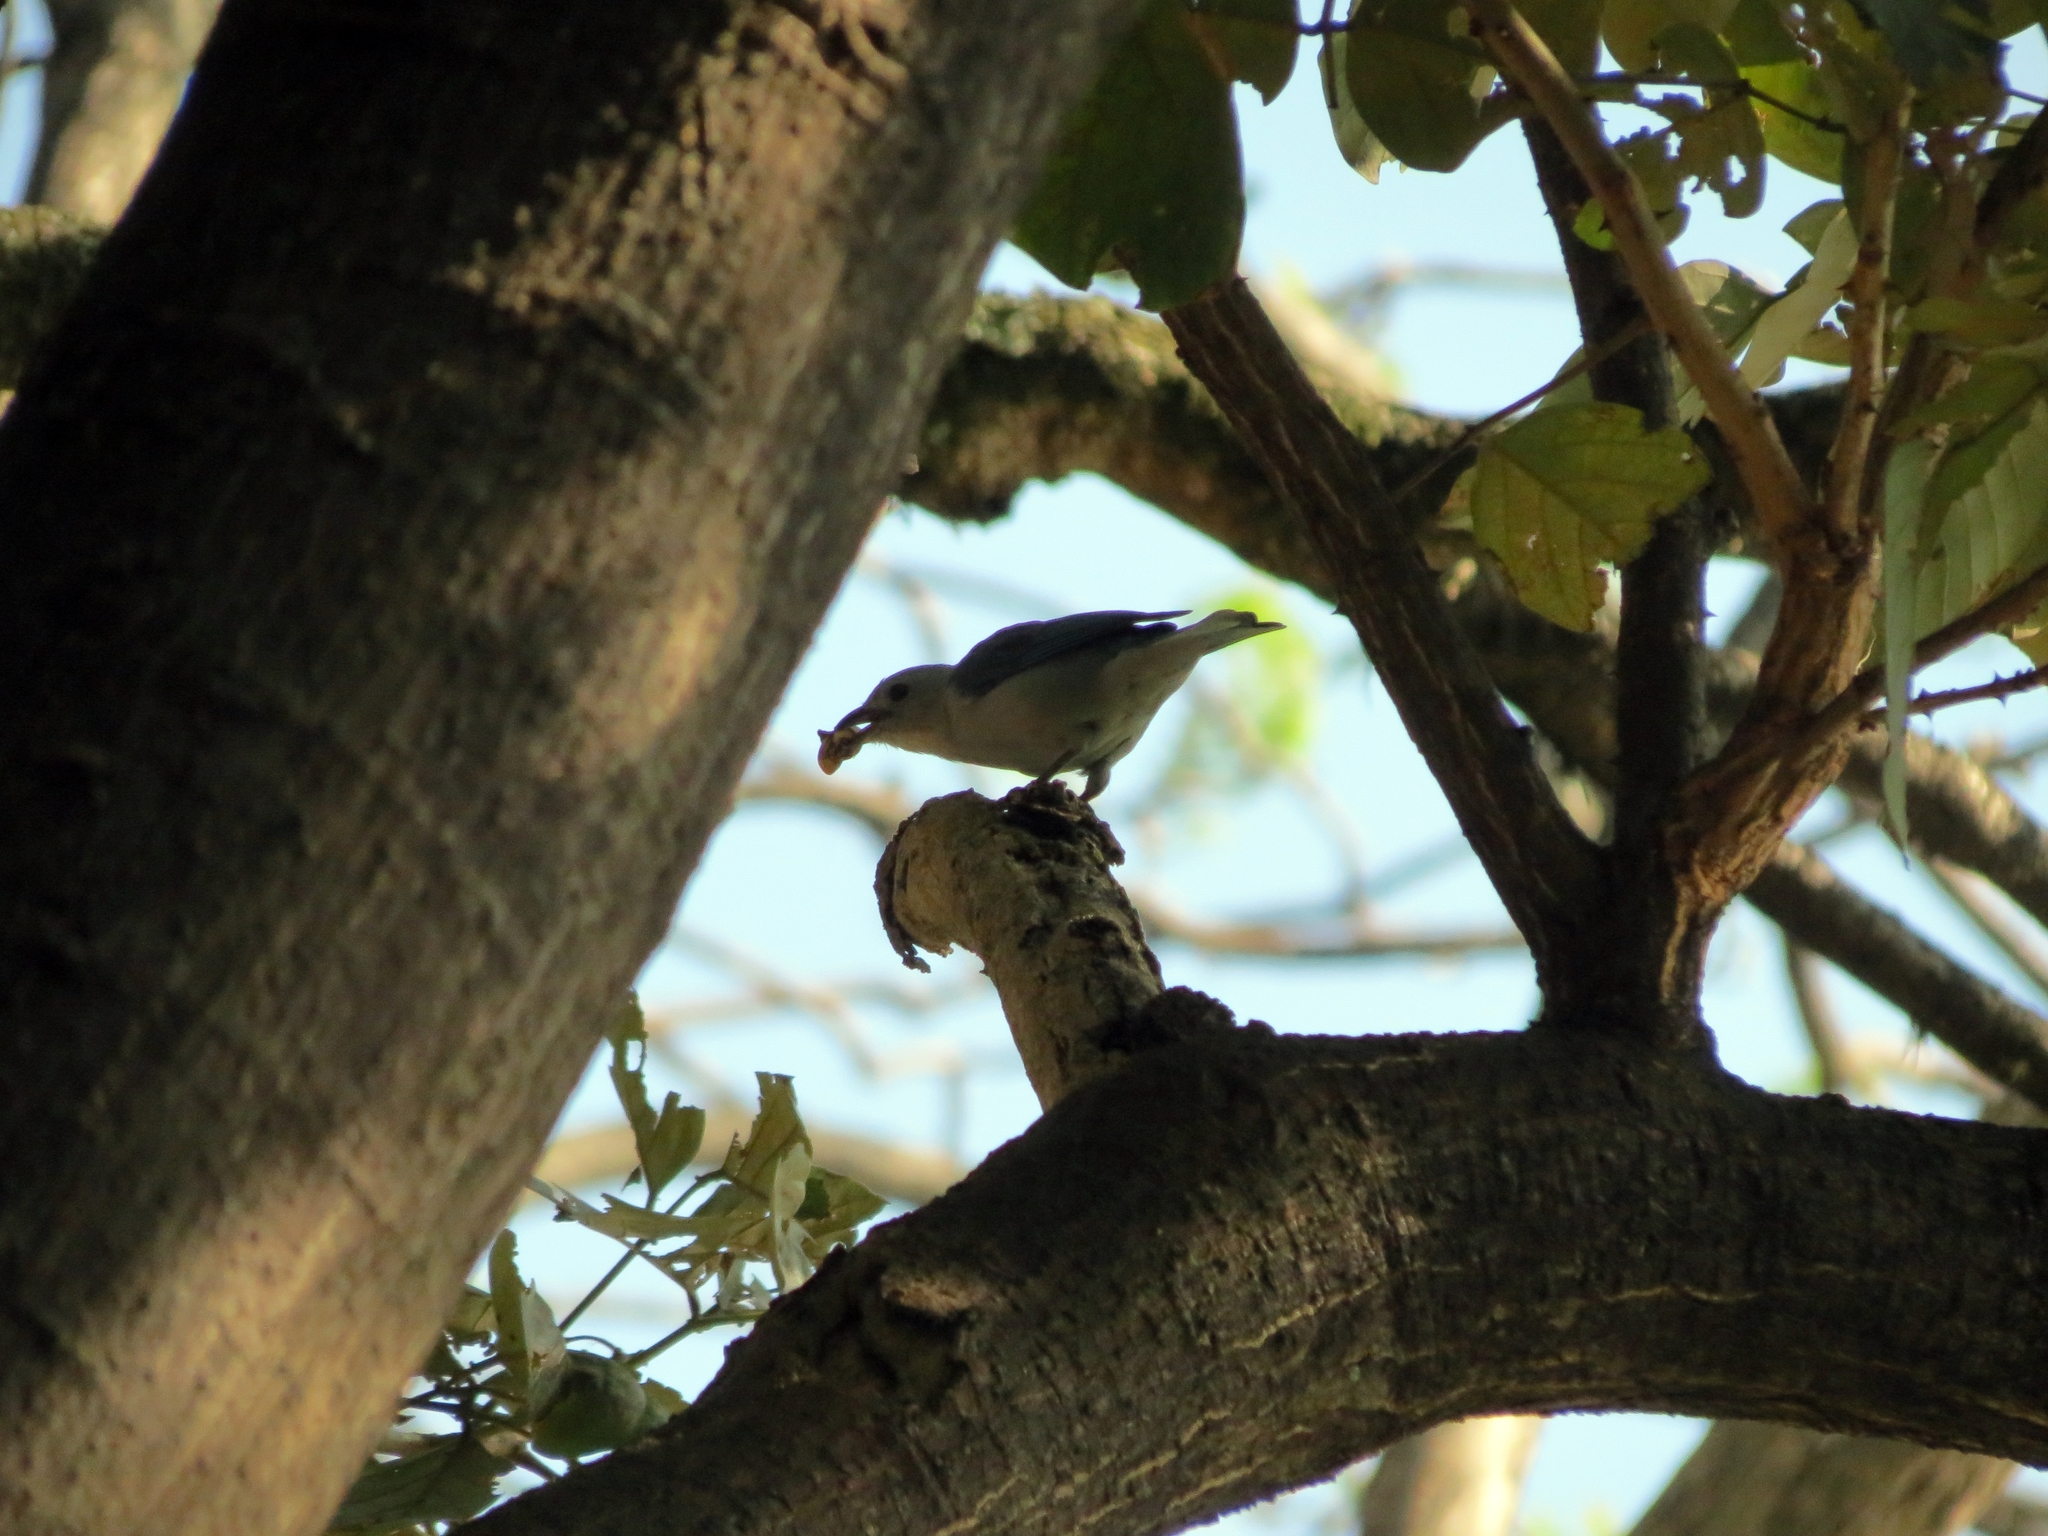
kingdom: Animalia
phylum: Chordata
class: Aves
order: Passeriformes
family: Thraupidae
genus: Thraupis
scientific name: Thraupis episcopus
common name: Blue-grey tanager
